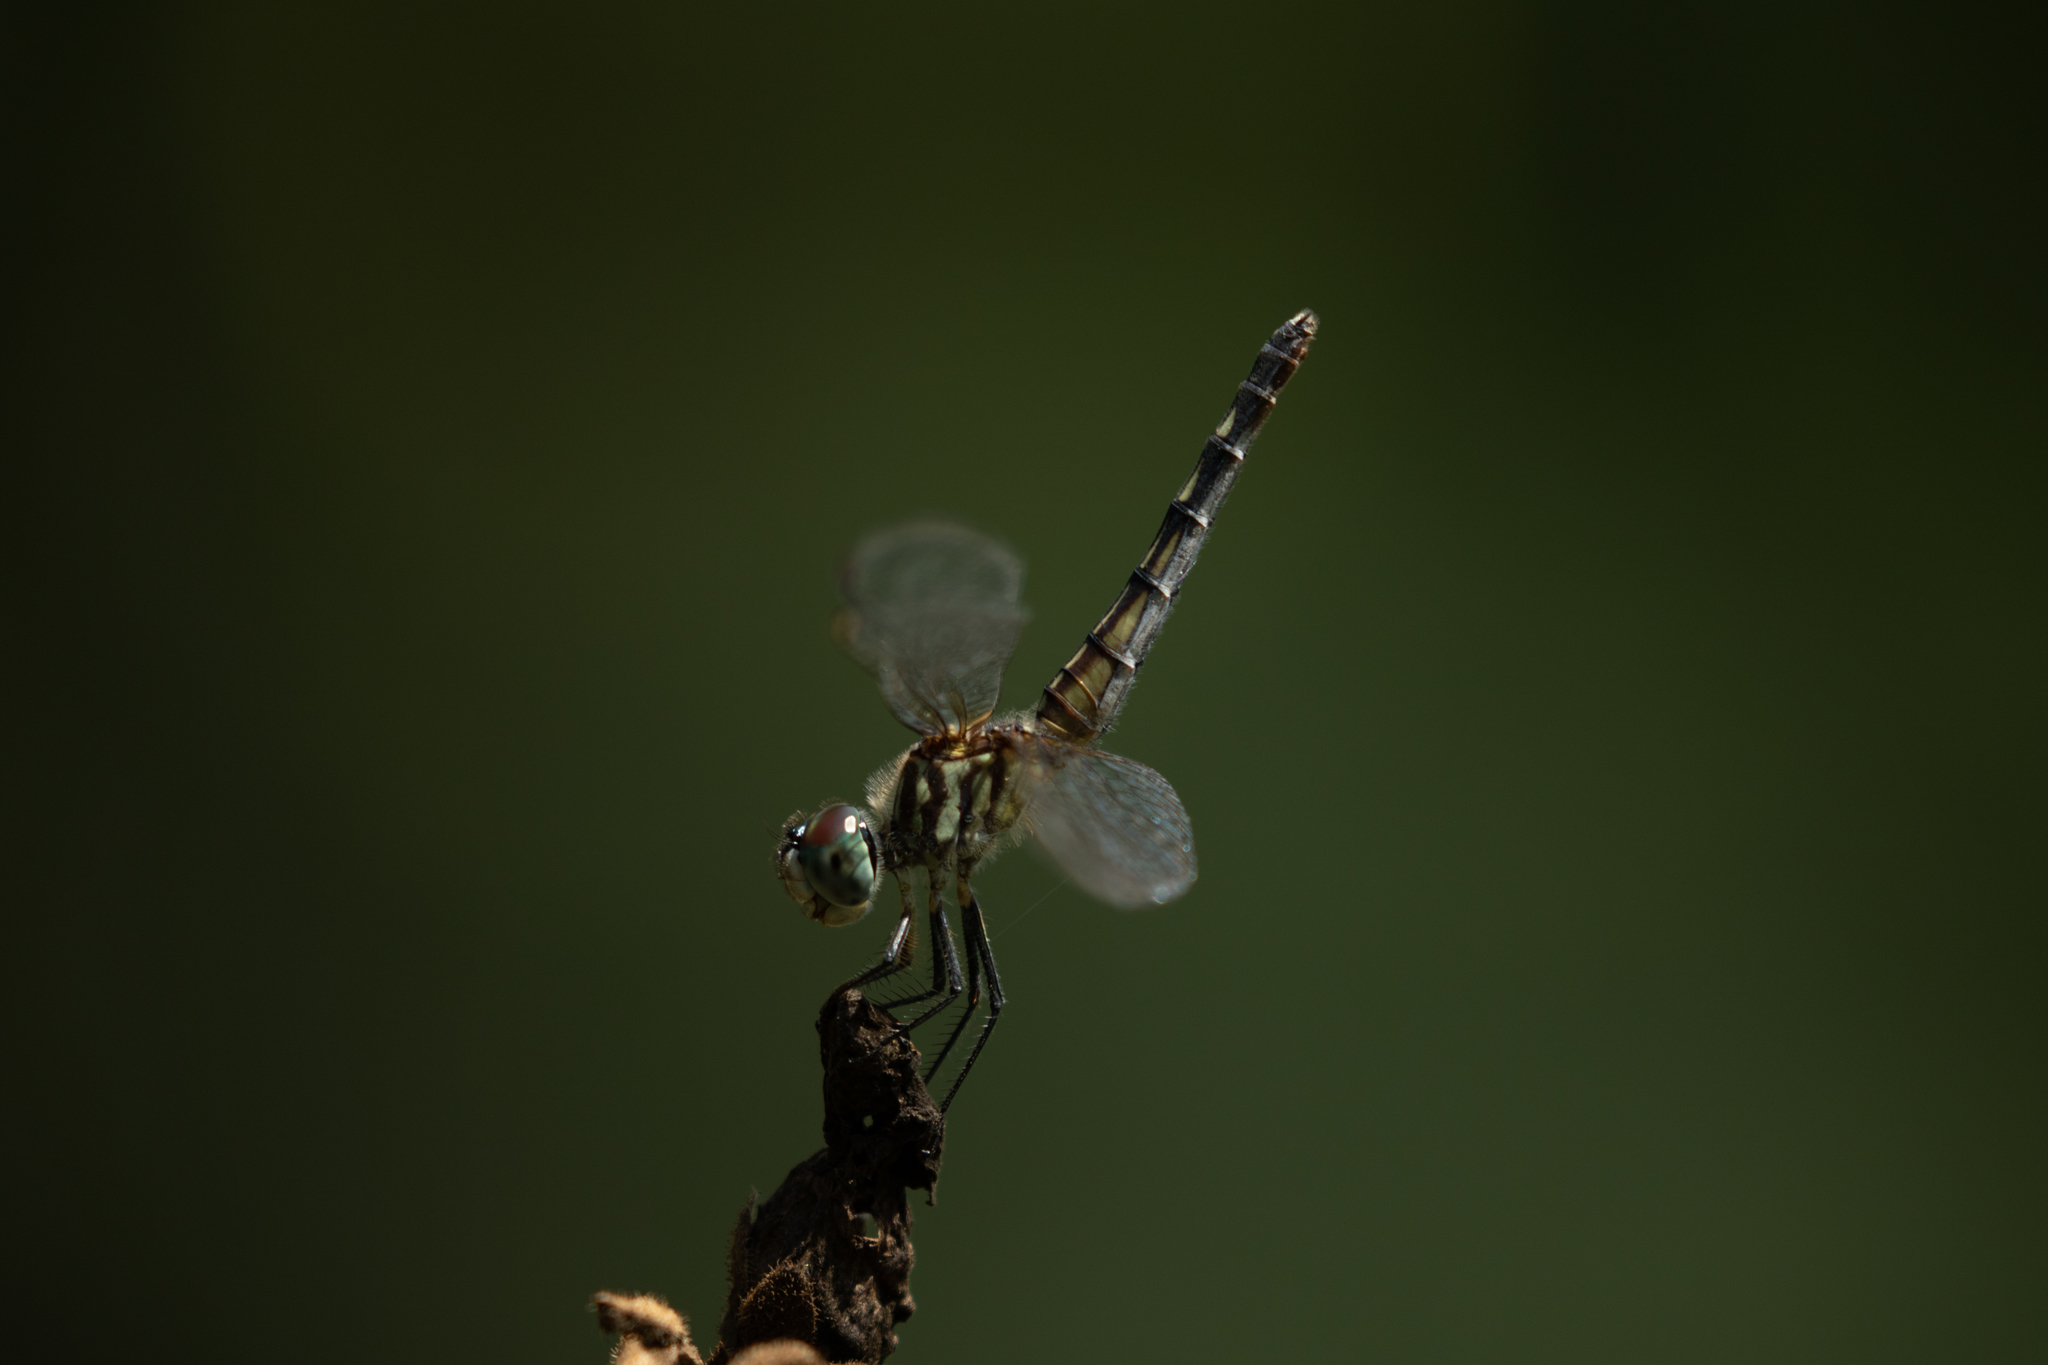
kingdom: Animalia
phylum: Arthropoda
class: Insecta
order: Odonata
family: Libellulidae
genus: Pachydiplax
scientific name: Pachydiplax longipennis
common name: Blue dasher
